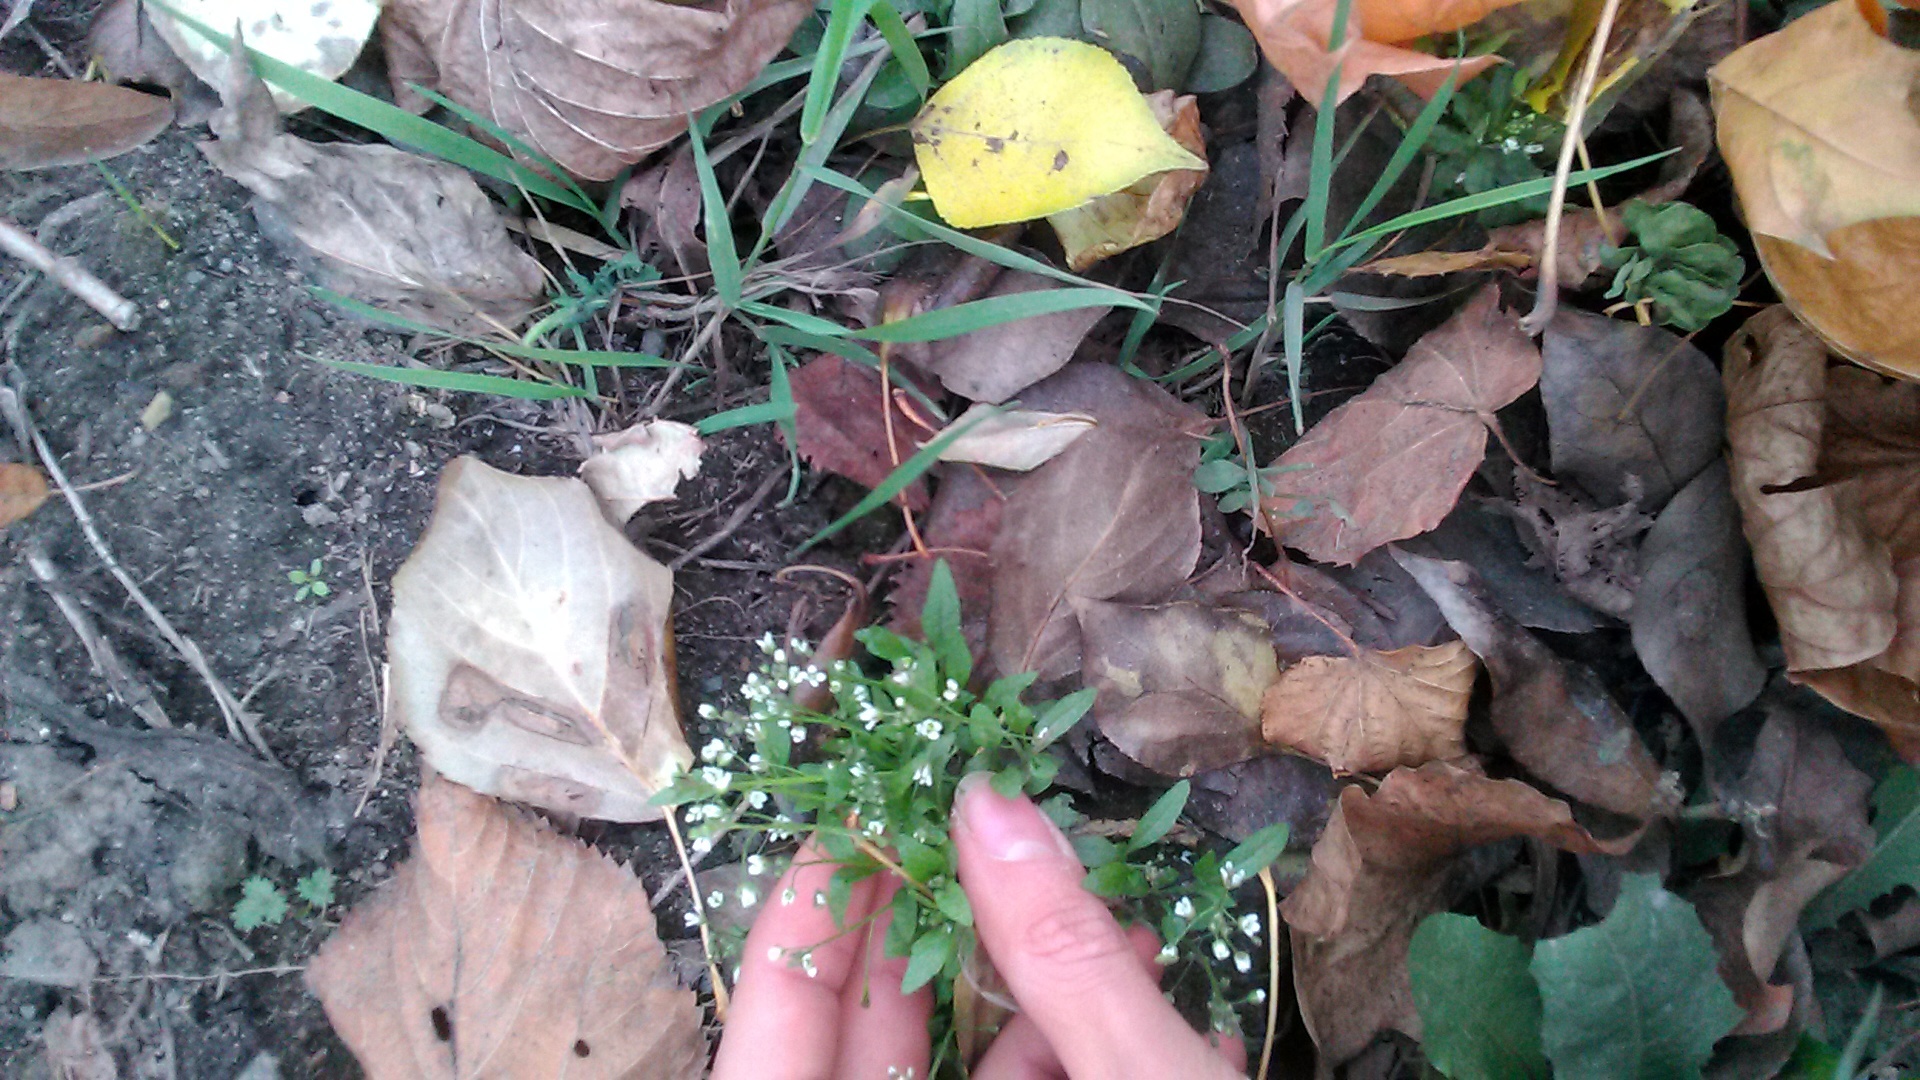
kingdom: Plantae
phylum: Tracheophyta
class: Magnoliopsida
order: Brassicales
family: Brassicaceae
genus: Capsella
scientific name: Capsella bursa-pastoris
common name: Shepherd's purse
